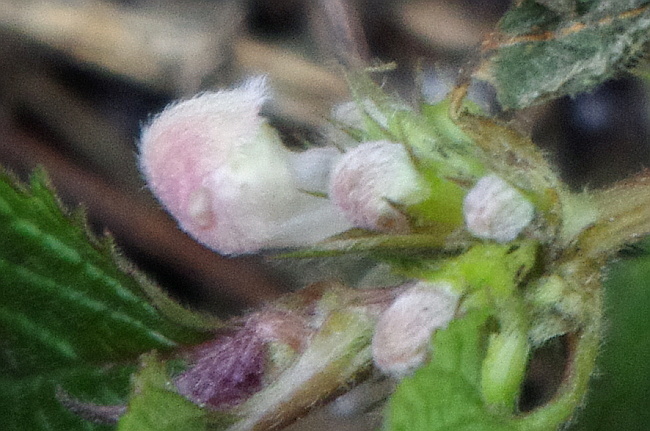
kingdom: Plantae
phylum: Tracheophyta
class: Magnoliopsida
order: Lamiales
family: Lamiaceae
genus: Lamium
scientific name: Lamium album
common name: White dead-nettle
